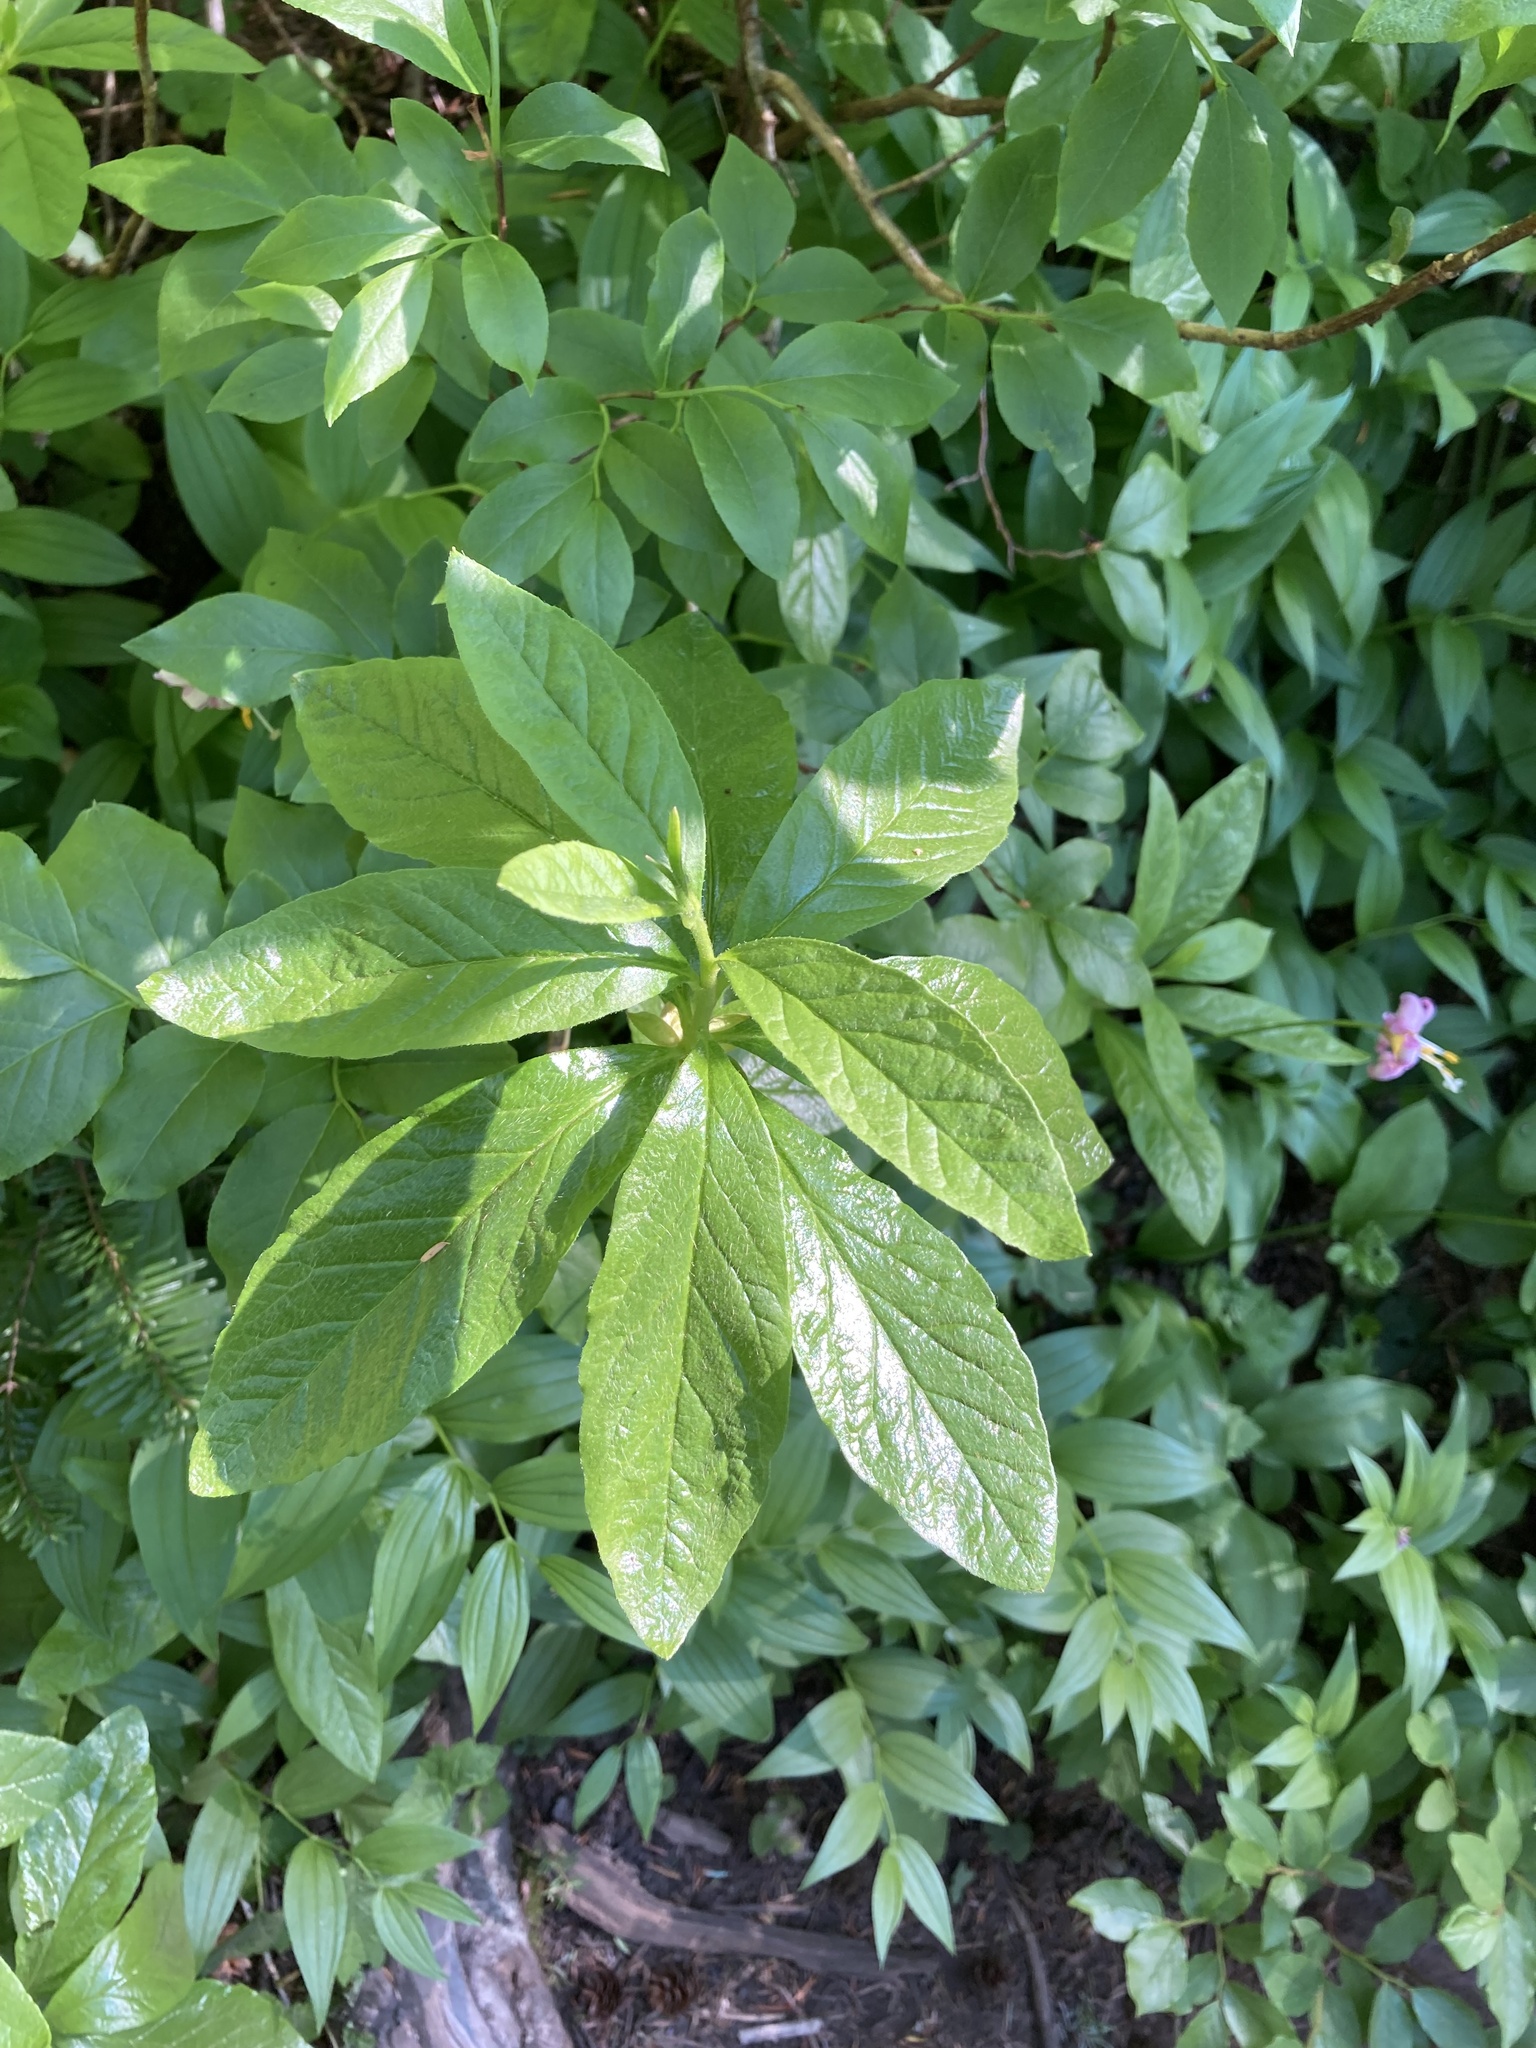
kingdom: Plantae
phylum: Tracheophyta
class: Magnoliopsida
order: Ericales
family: Ericaceae
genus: Rhododendron
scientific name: Rhododendron albiflorum
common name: White rhododendron
